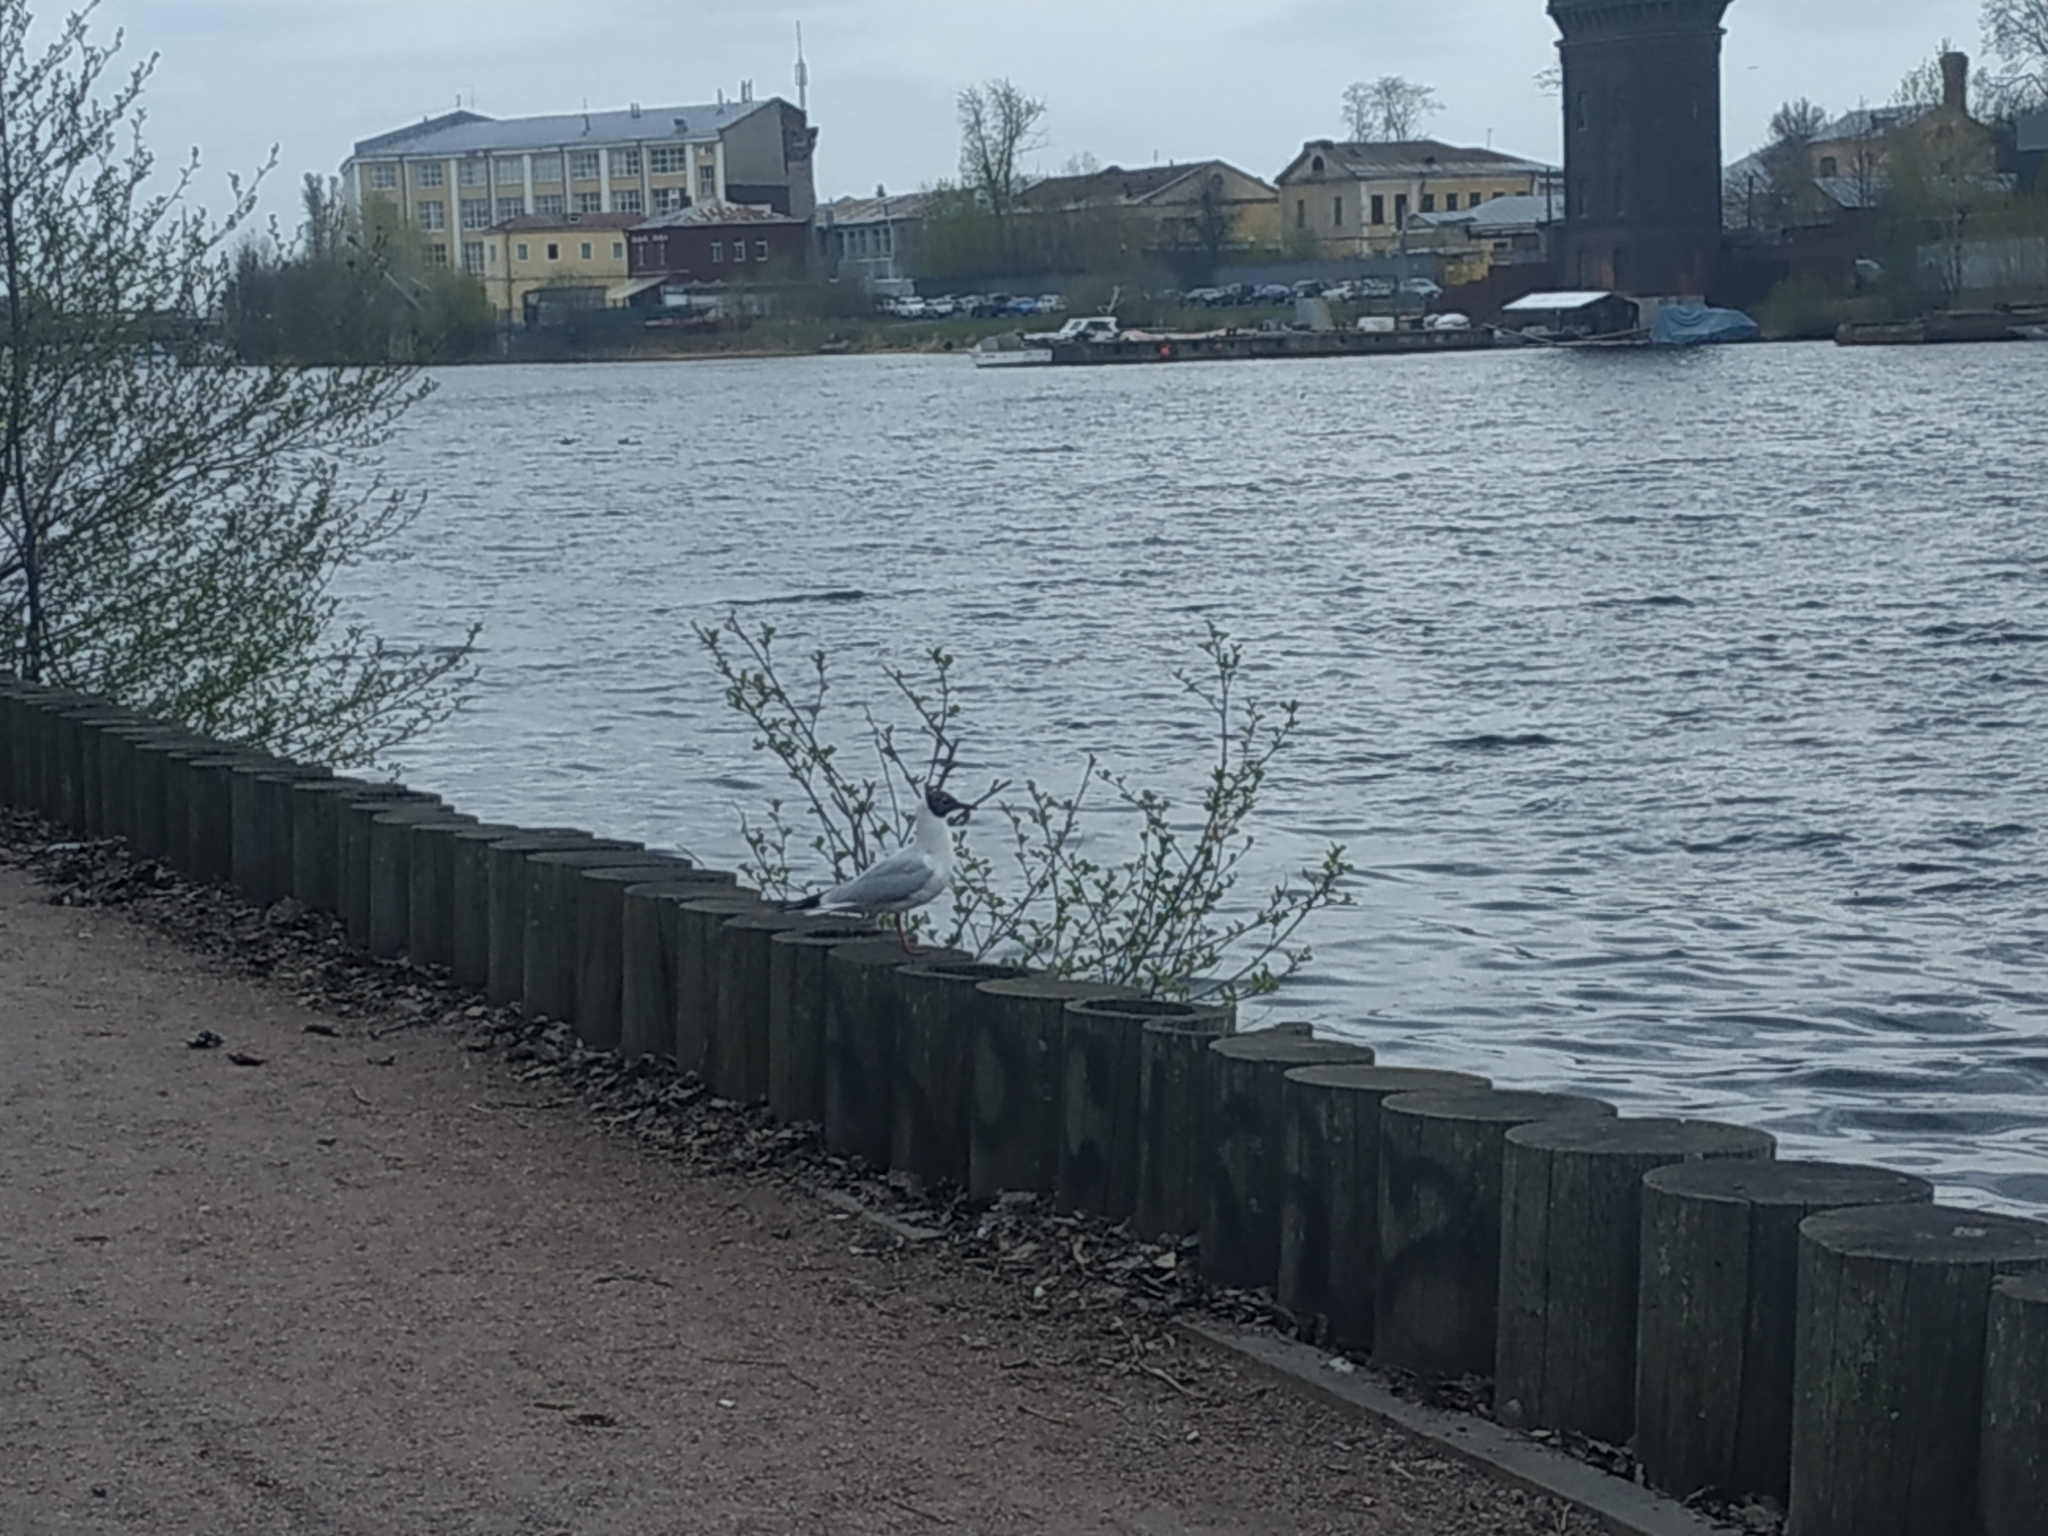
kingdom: Animalia
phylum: Chordata
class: Aves
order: Charadriiformes
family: Laridae
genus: Chroicocephalus
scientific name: Chroicocephalus ridibundus
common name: Black-headed gull
